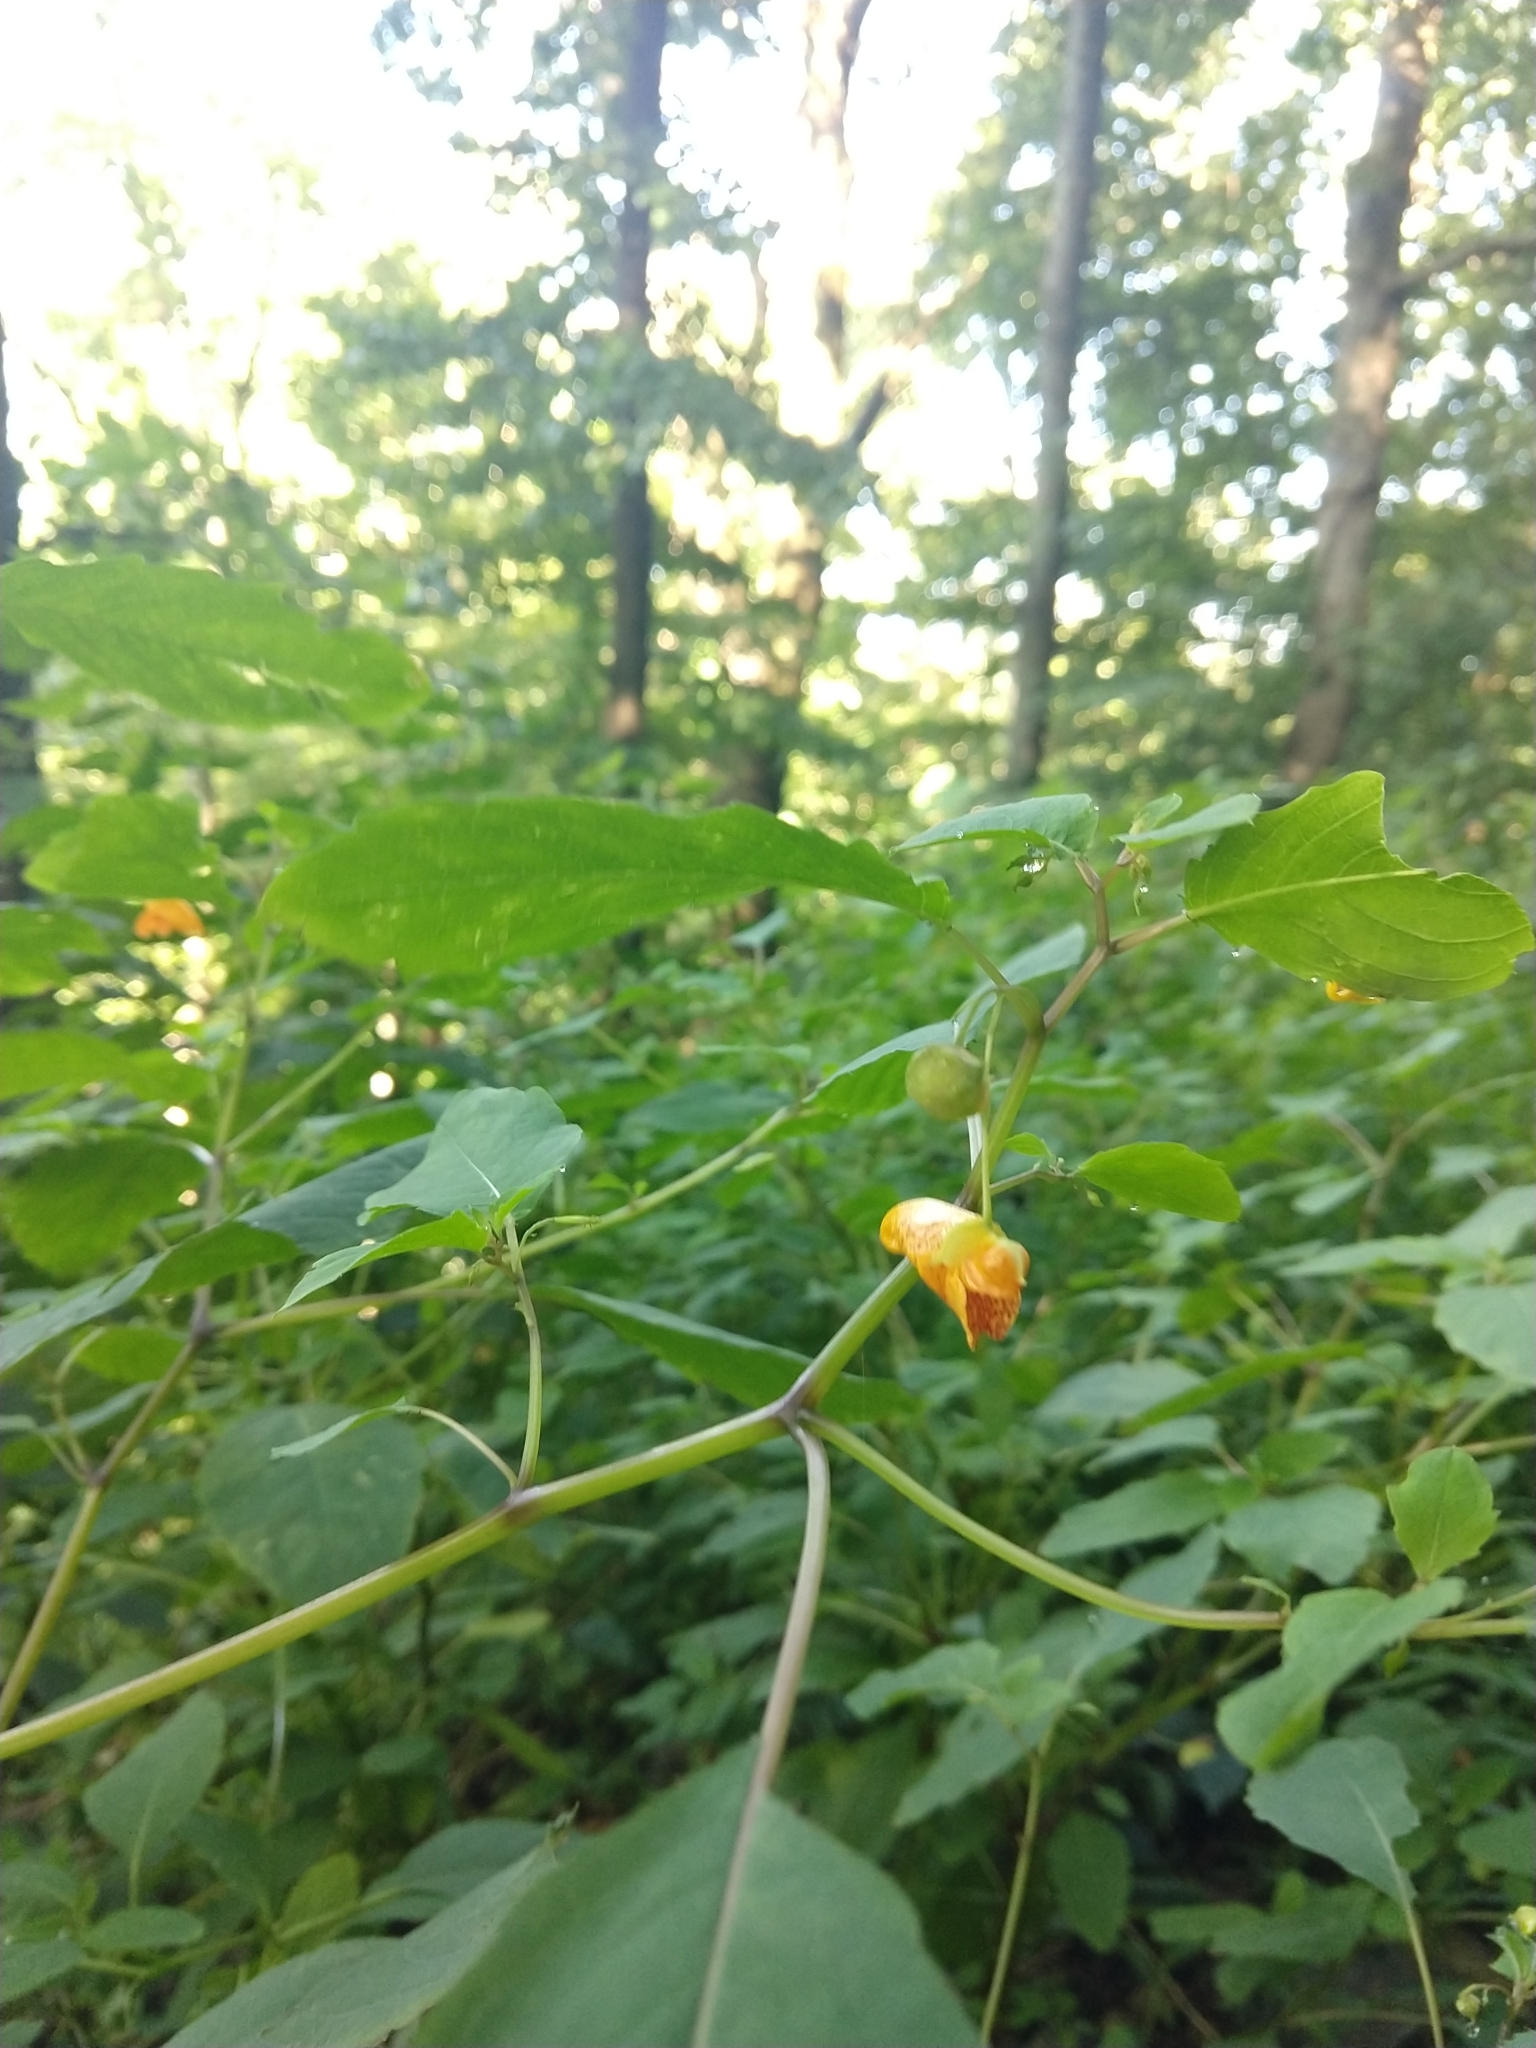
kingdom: Plantae
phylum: Tracheophyta
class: Magnoliopsida
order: Ericales
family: Balsaminaceae
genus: Impatiens
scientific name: Impatiens capensis
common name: Orange balsam
